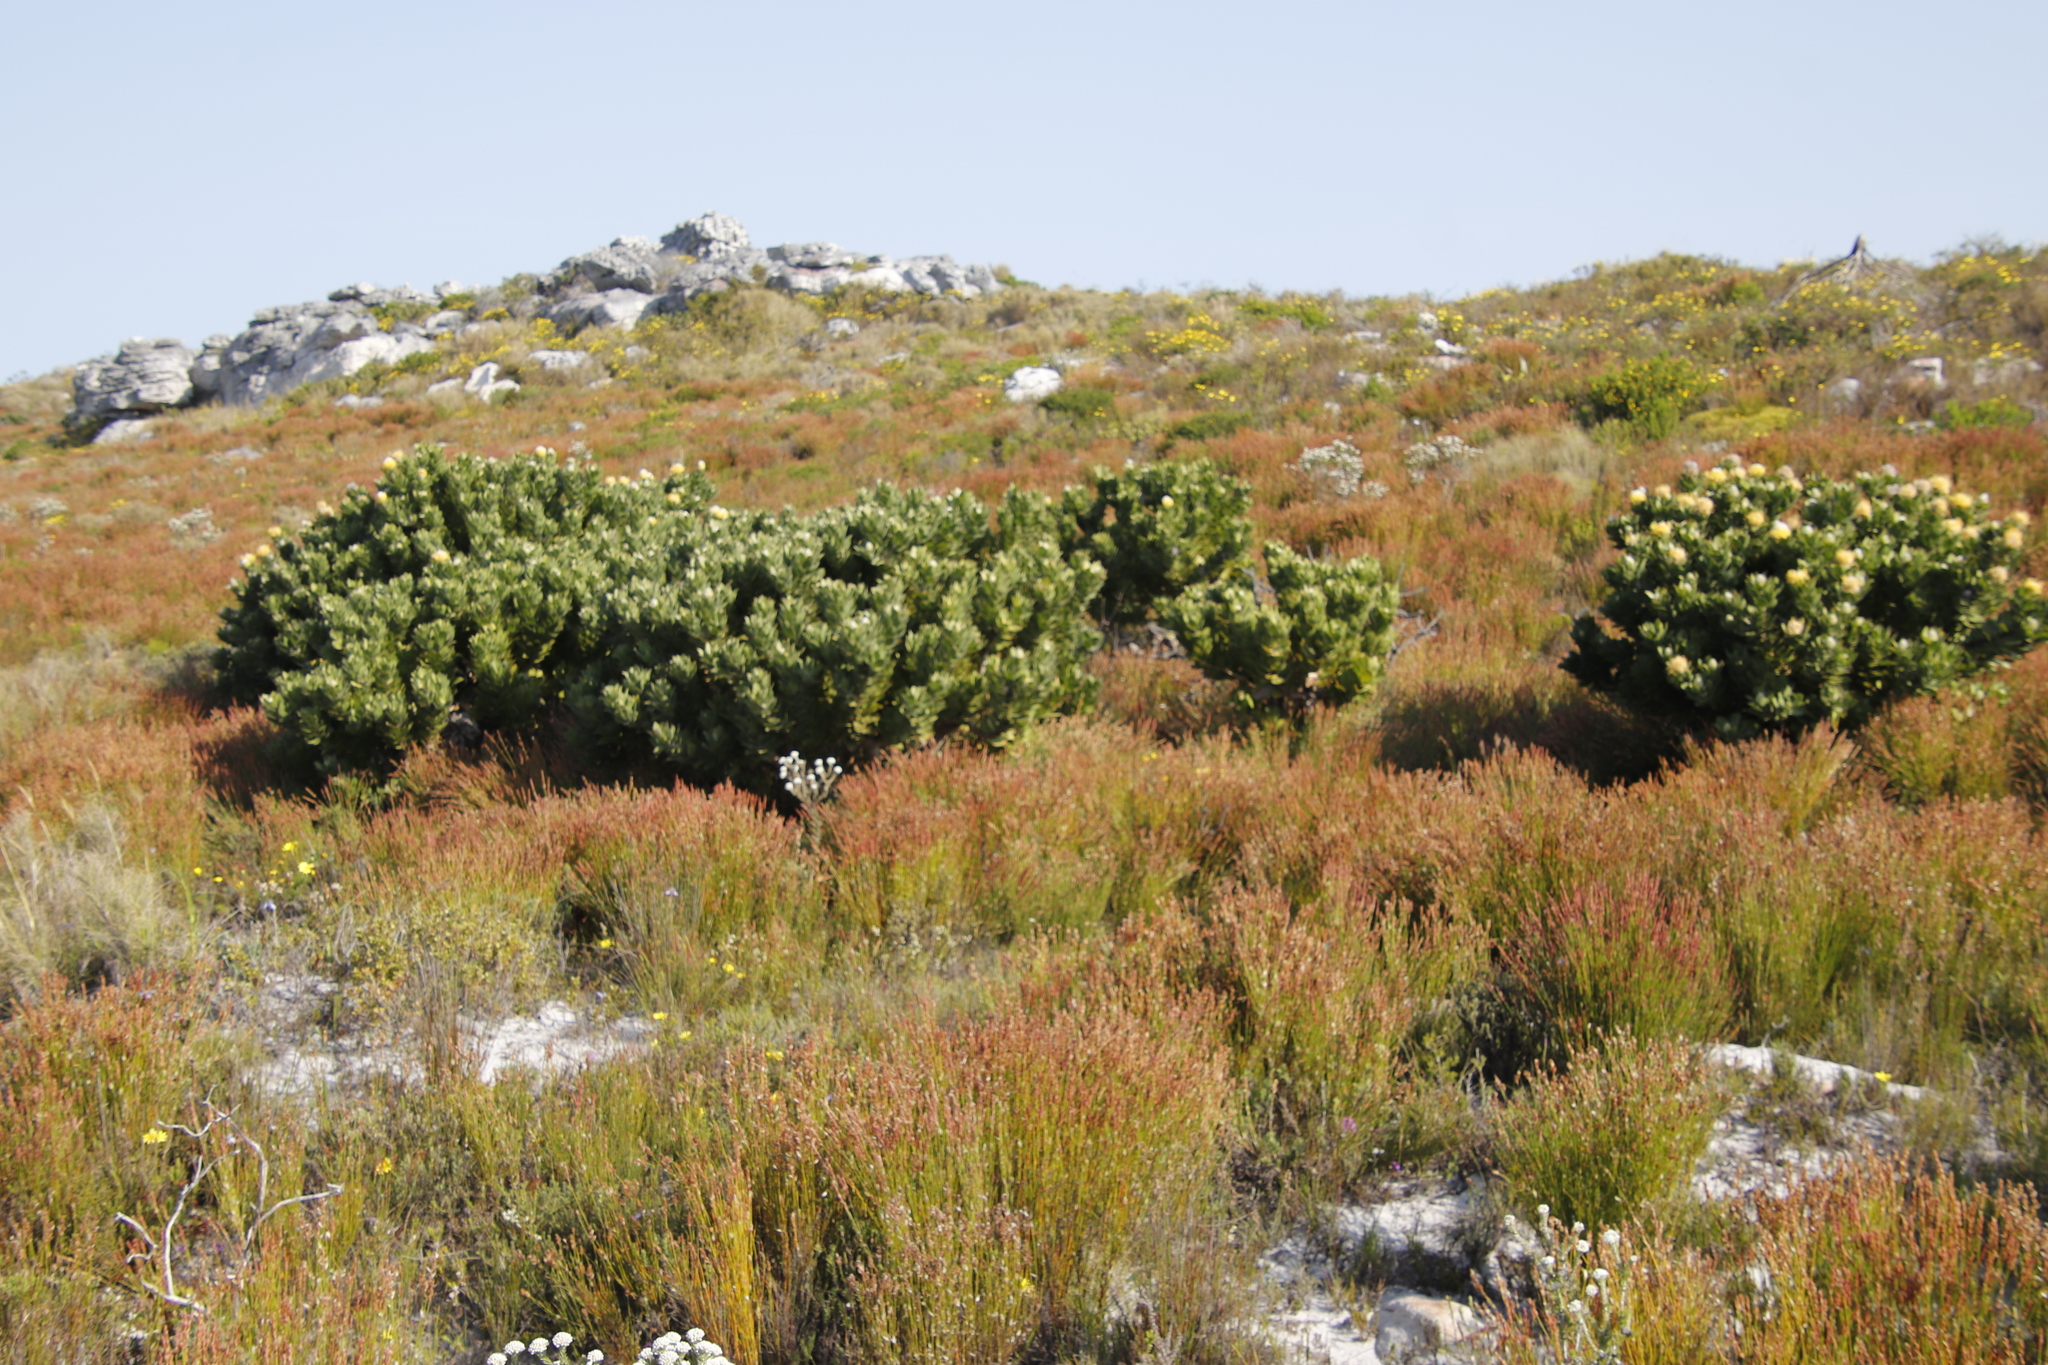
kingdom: Plantae
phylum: Tracheophyta
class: Magnoliopsida
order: Proteales
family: Proteaceae
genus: Leucospermum
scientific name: Leucospermum conocarpodendron
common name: Tree pincushion
